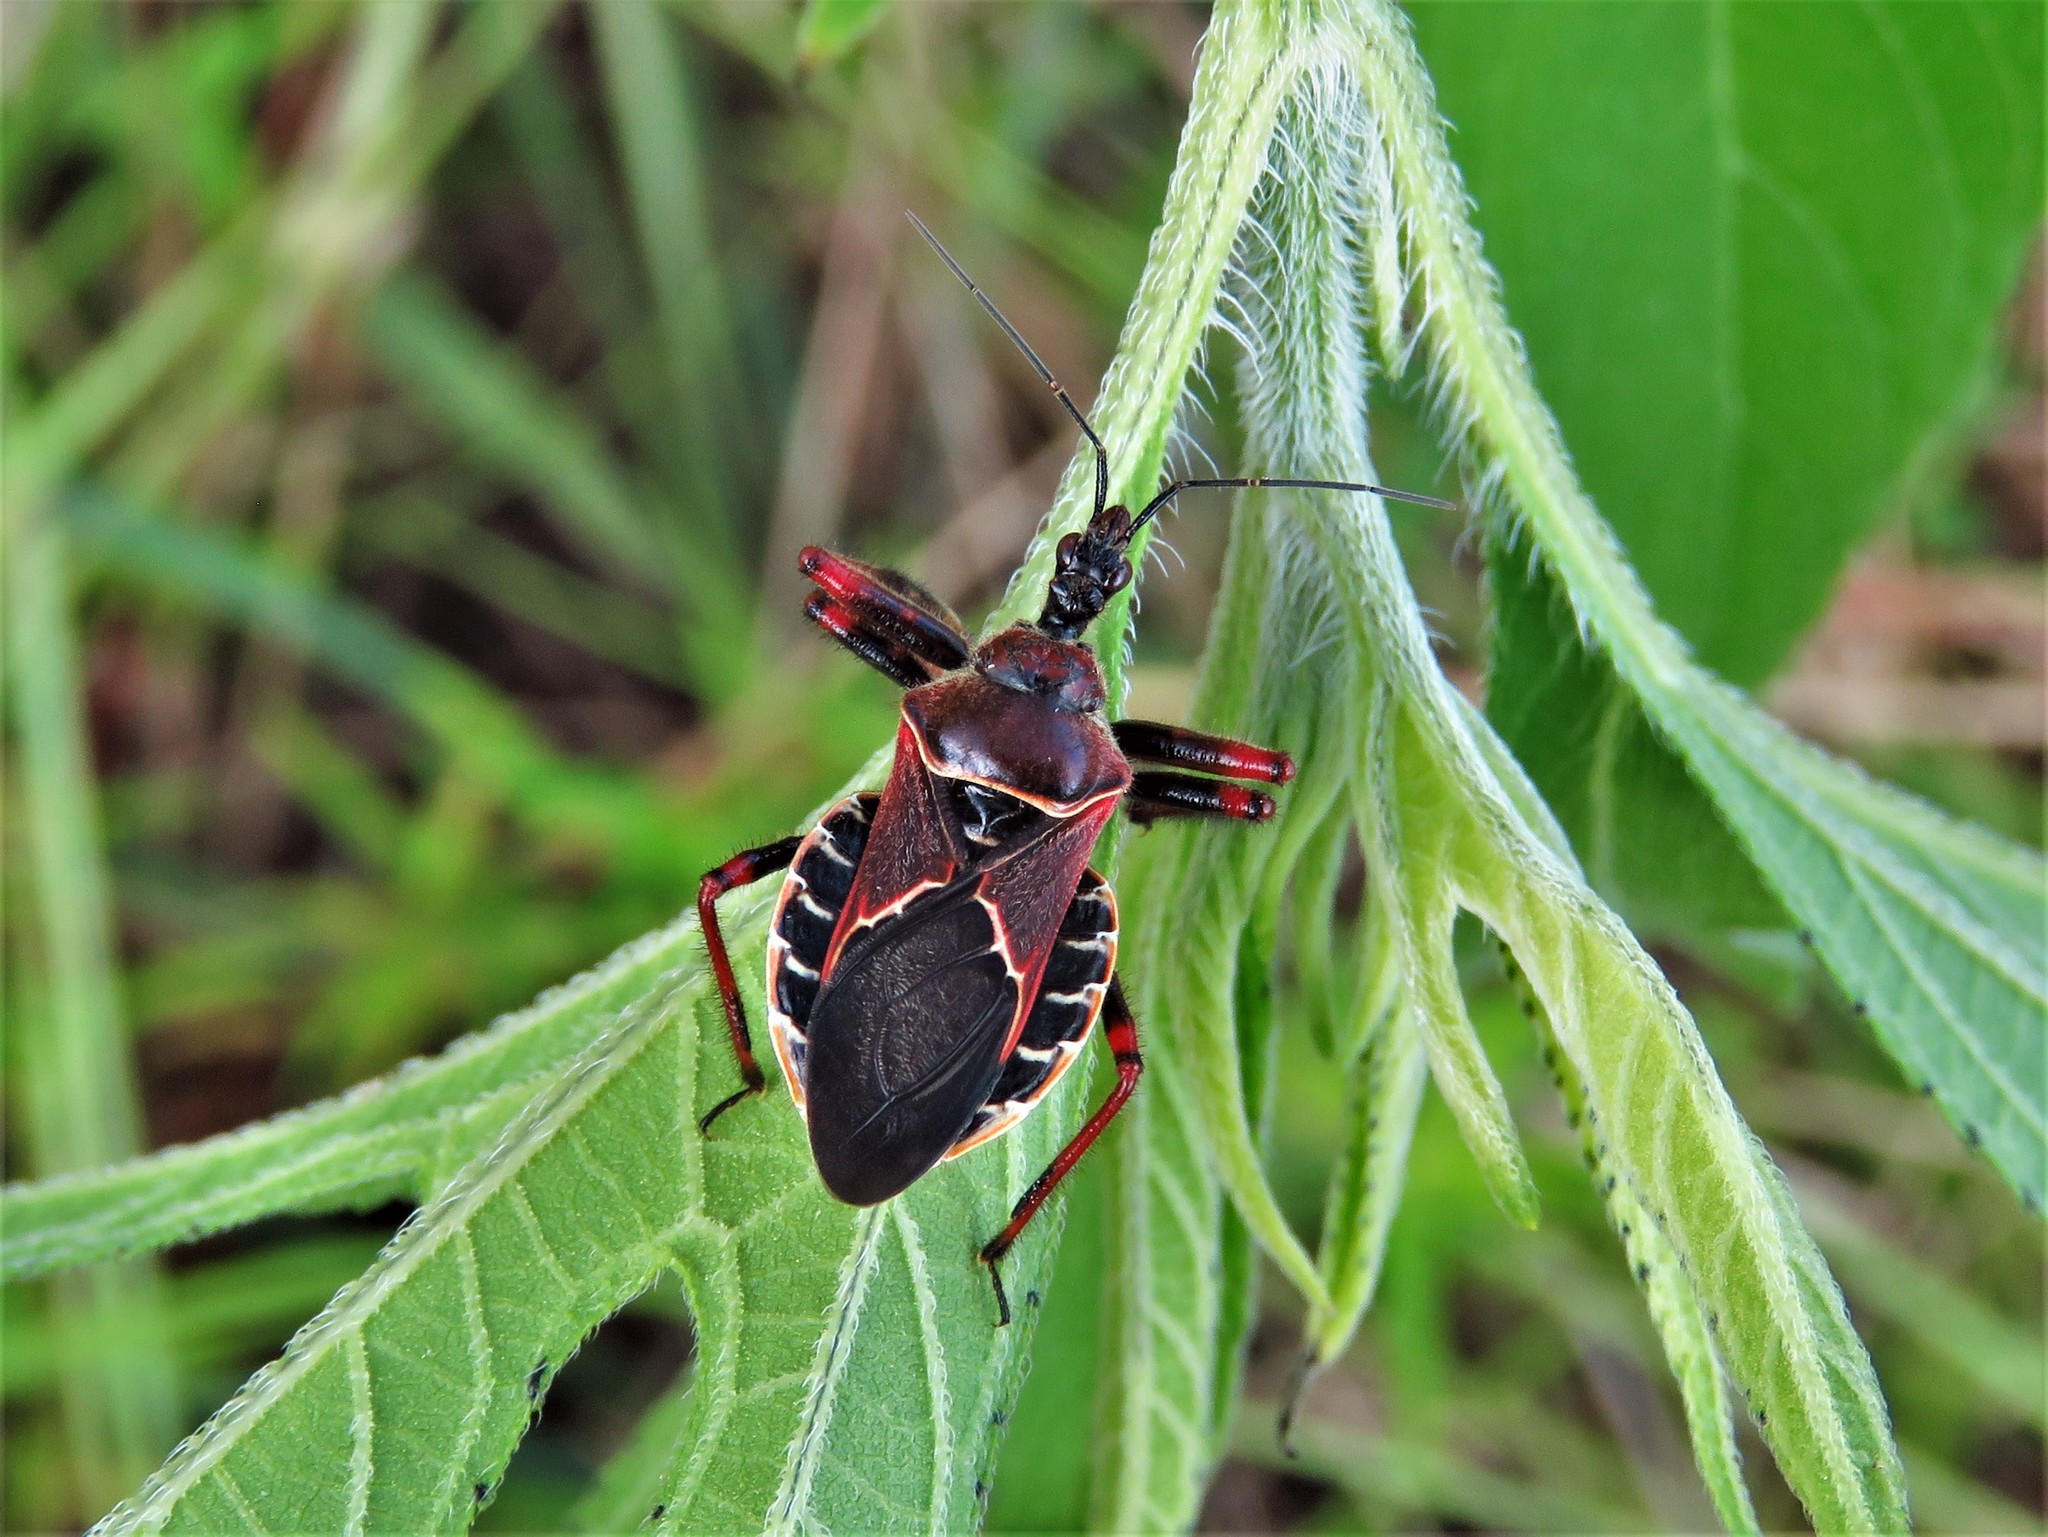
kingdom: Animalia
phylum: Arthropoda
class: Insecta
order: Hemiptera
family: Reduviidae
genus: Apiomerus
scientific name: Apiomerus spissipes
